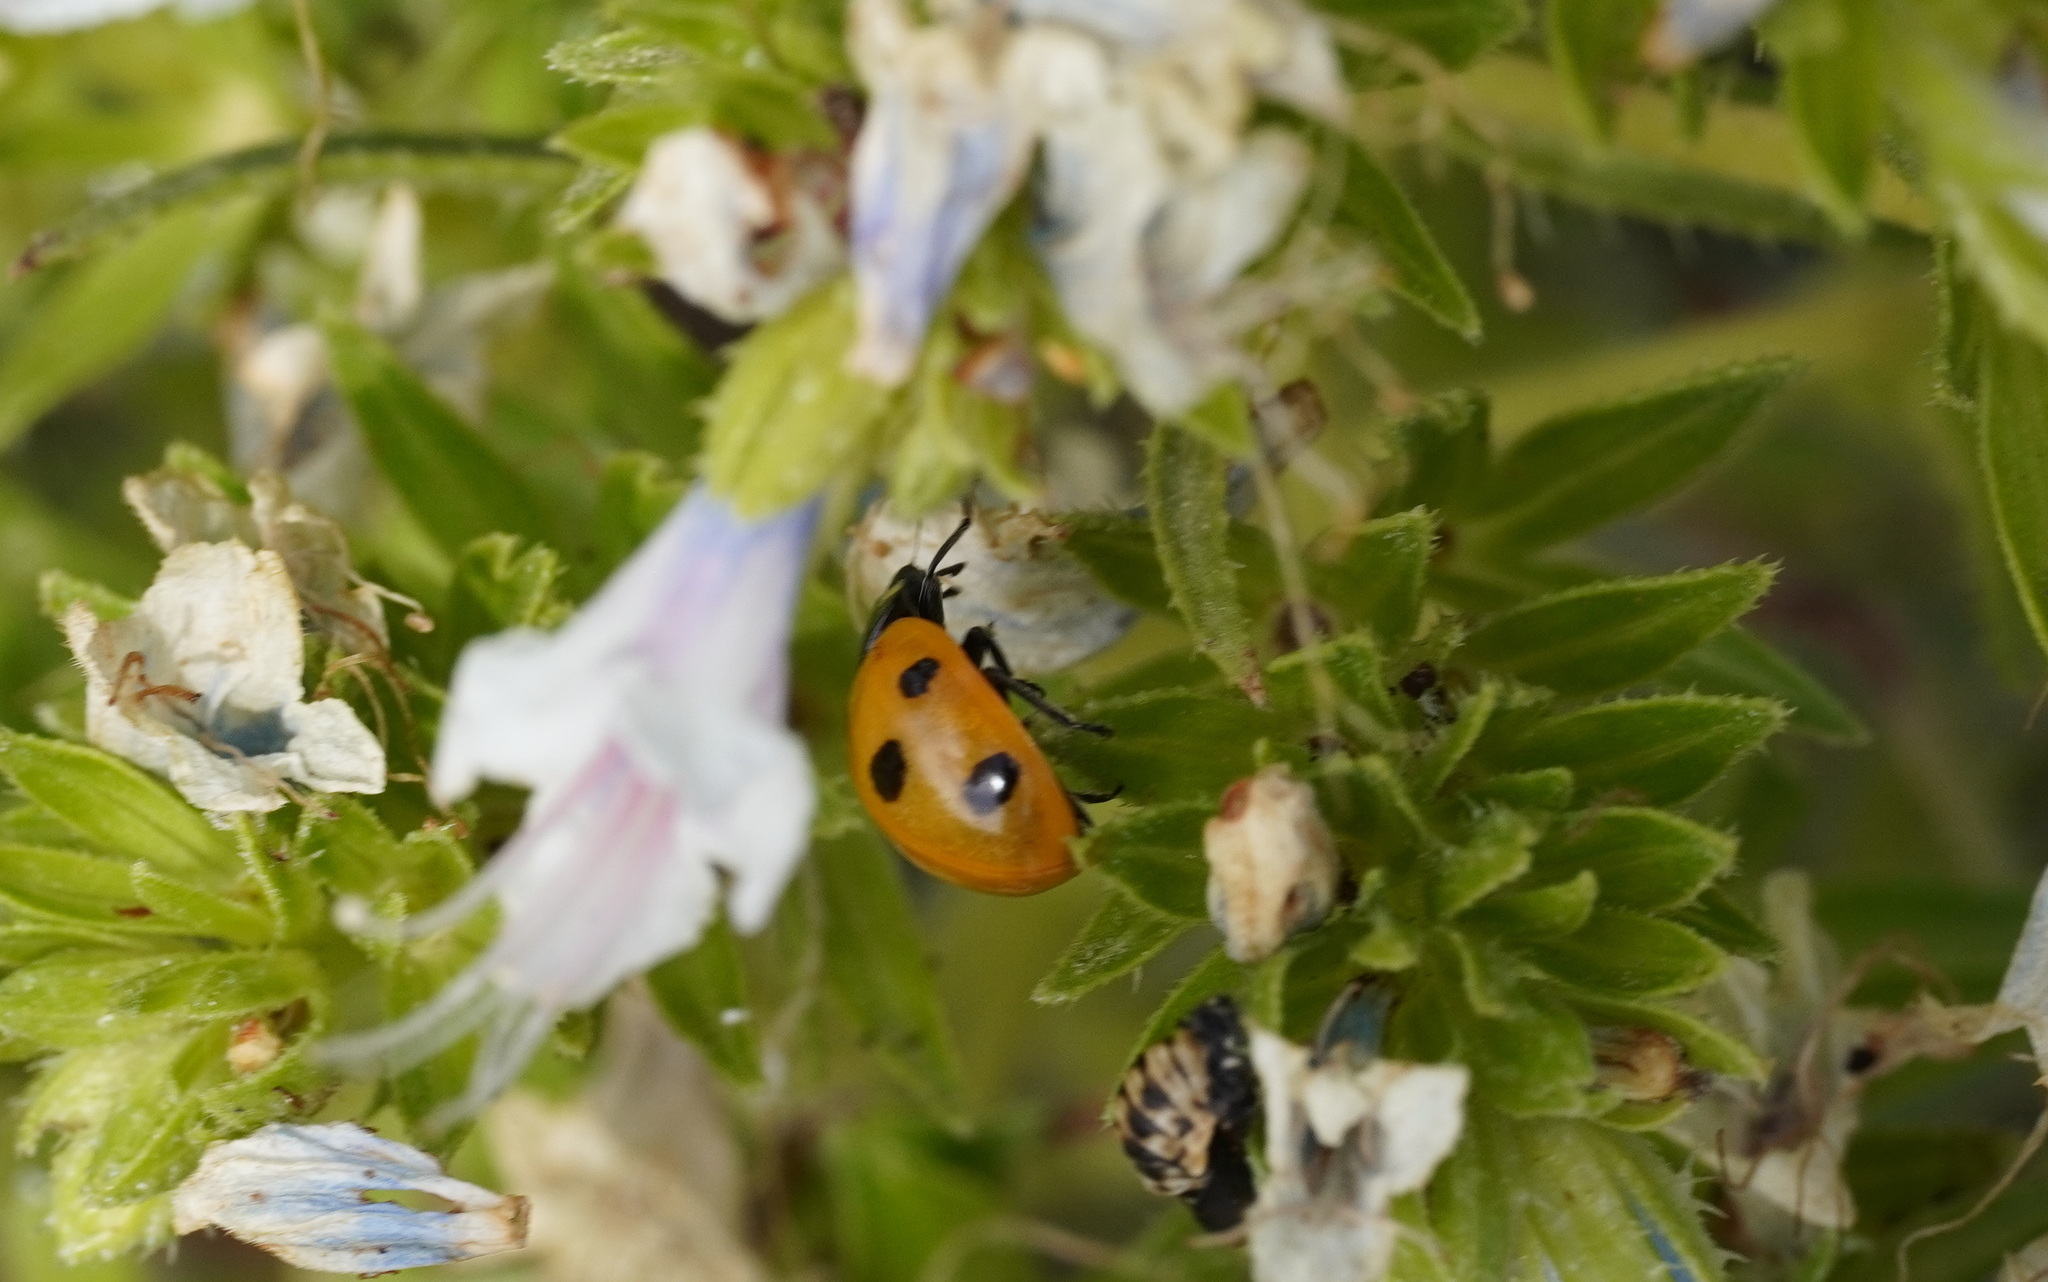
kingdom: Animalia
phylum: Arthropoda
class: Insecta
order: Coleoptera
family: Coccinellidae
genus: Coccinella
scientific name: Coccinella algerica
